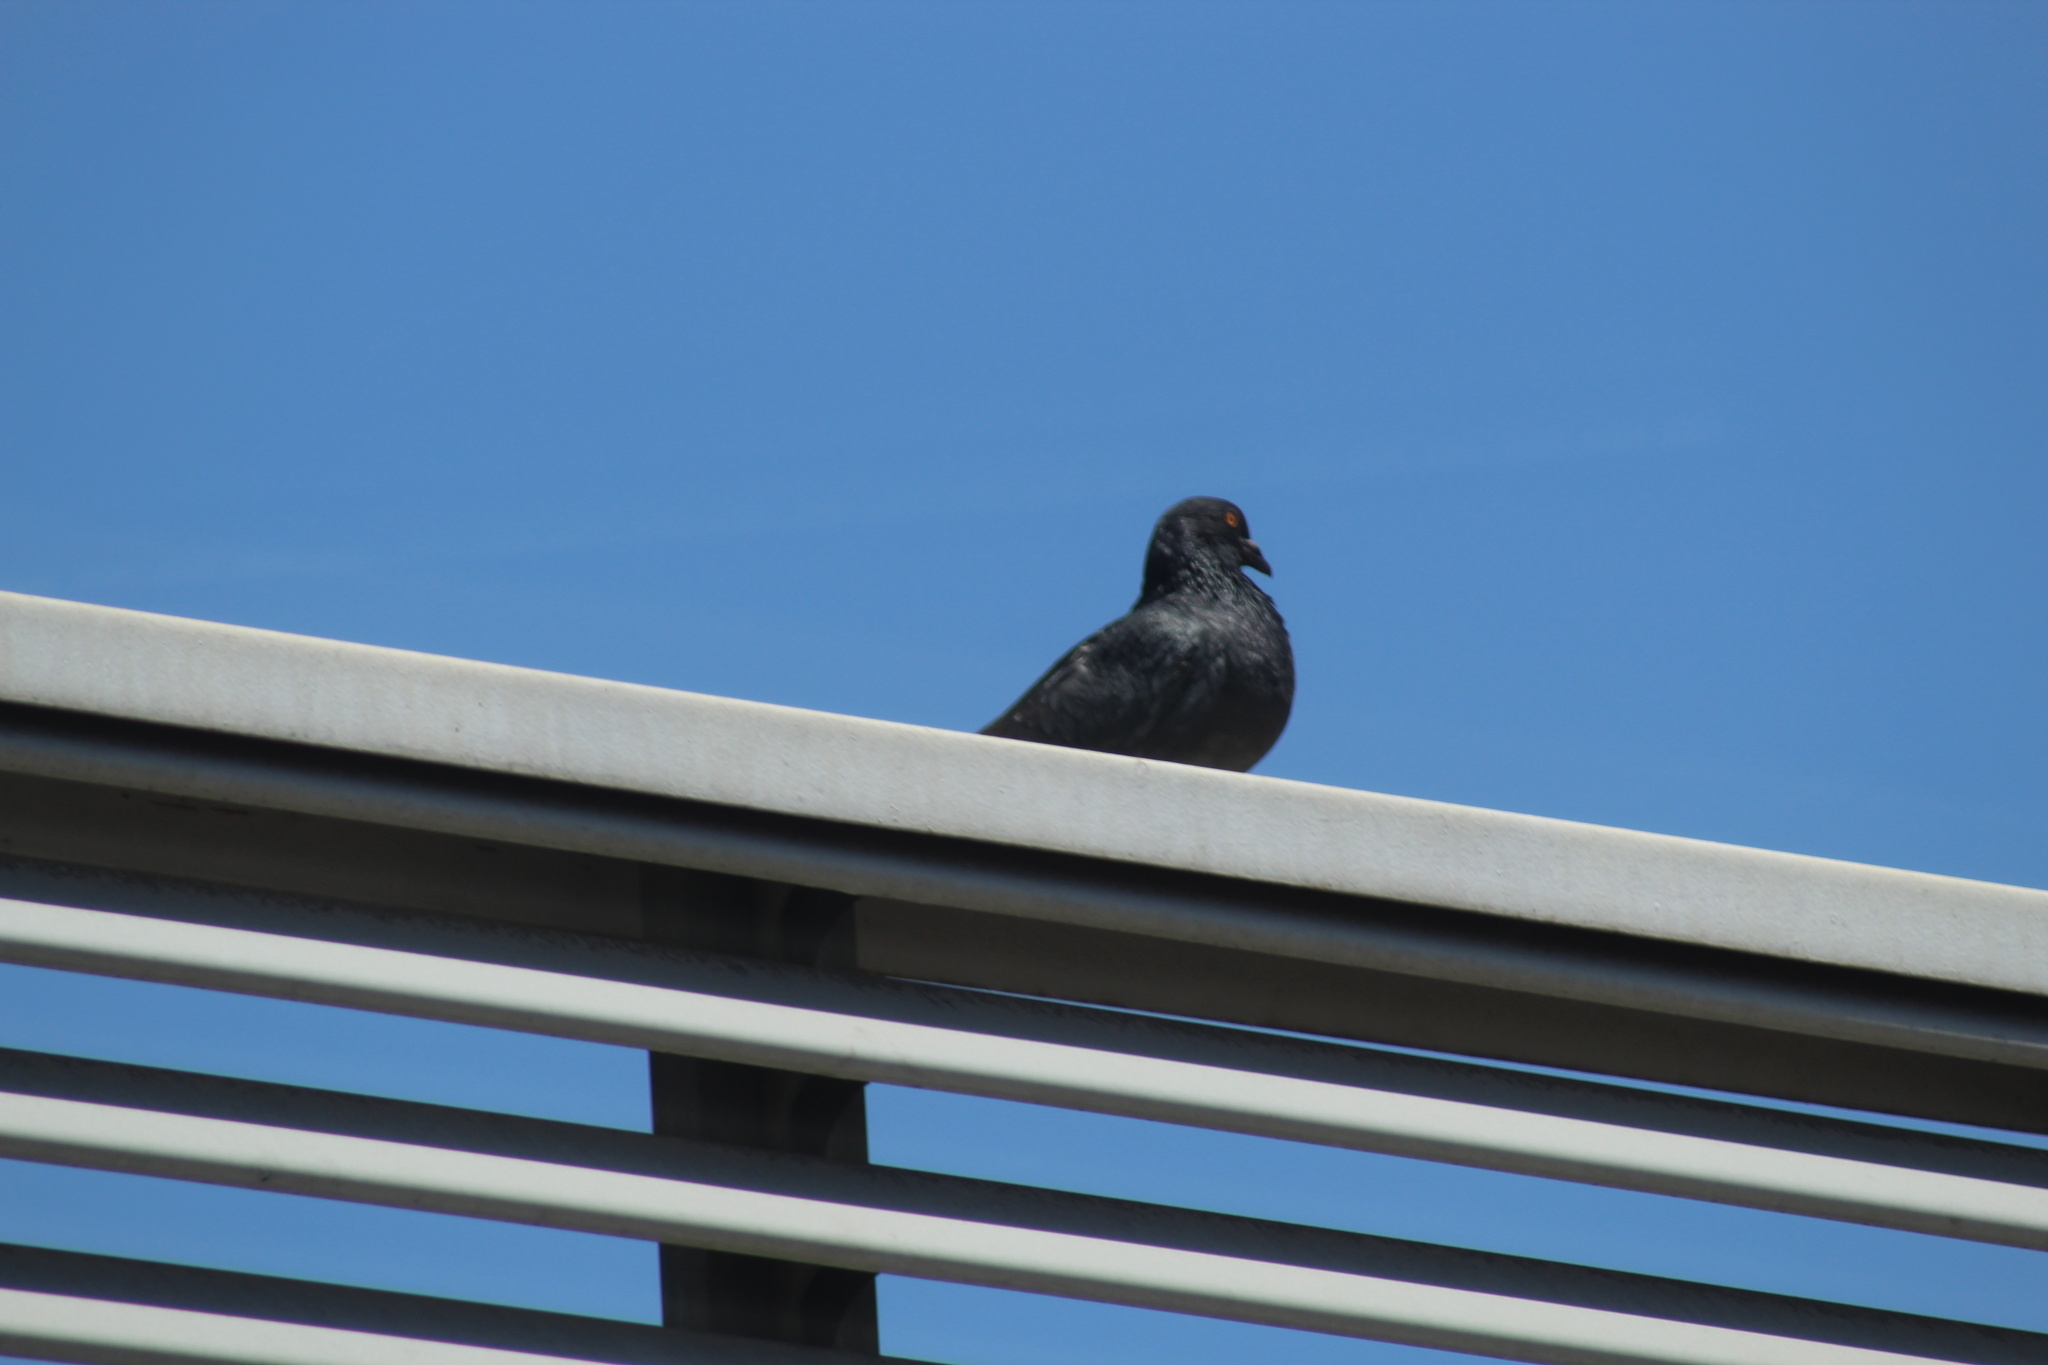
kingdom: Animalia
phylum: Chordata
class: Aves
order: Columbiformes
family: Columbidae
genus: Columba
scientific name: Columba livia
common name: Rock pigeon
